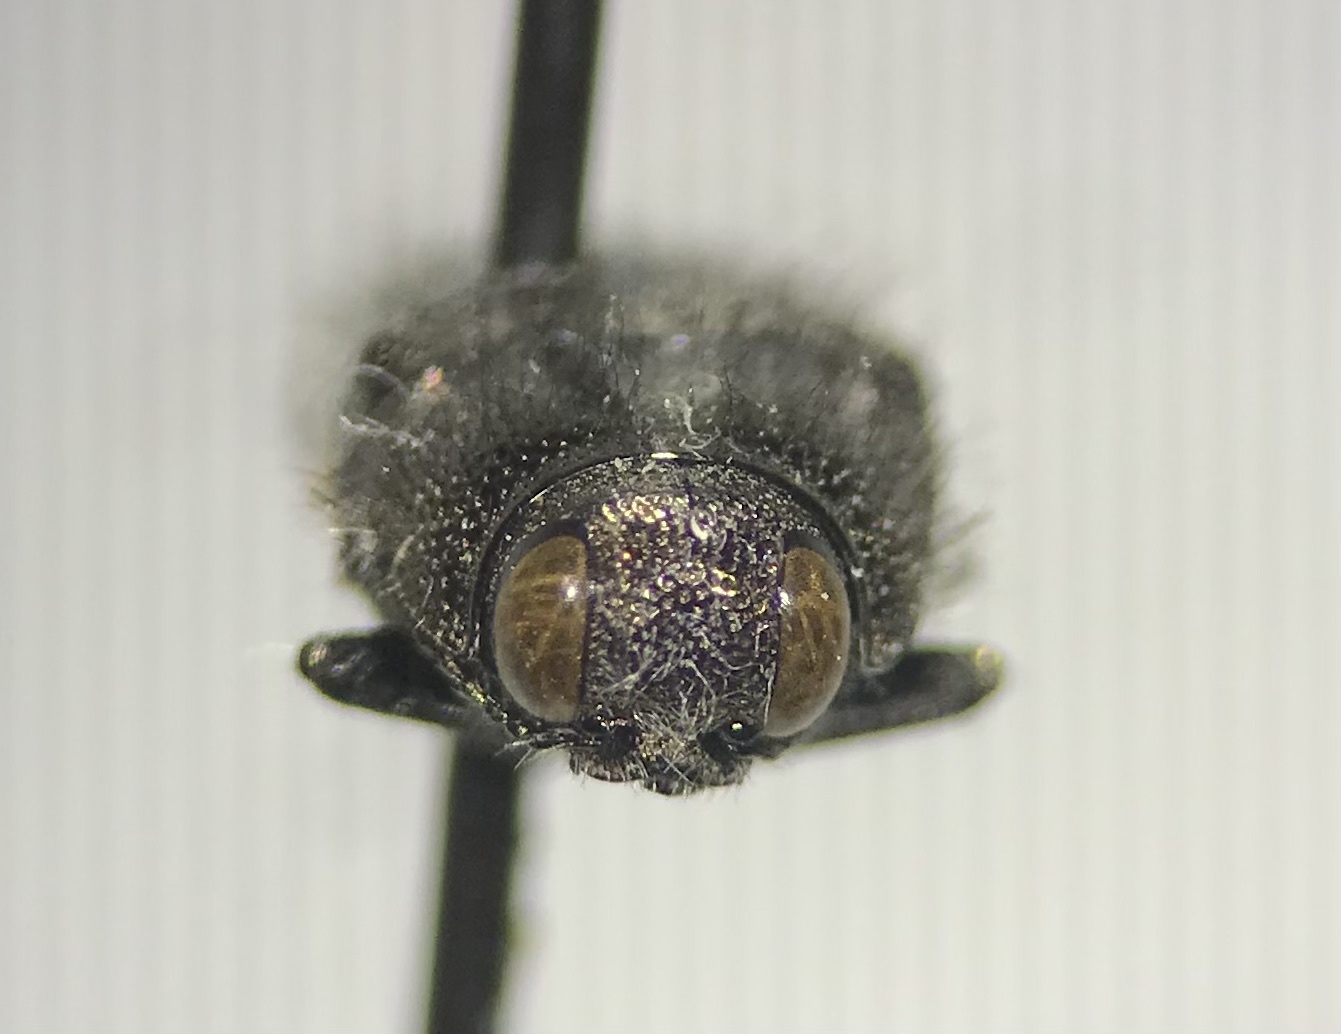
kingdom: Animalia
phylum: Arthropoda
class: Insecta
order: Coleoptera
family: Buprestidae
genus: Acmaeodera
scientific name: Acmaeodera angelica
